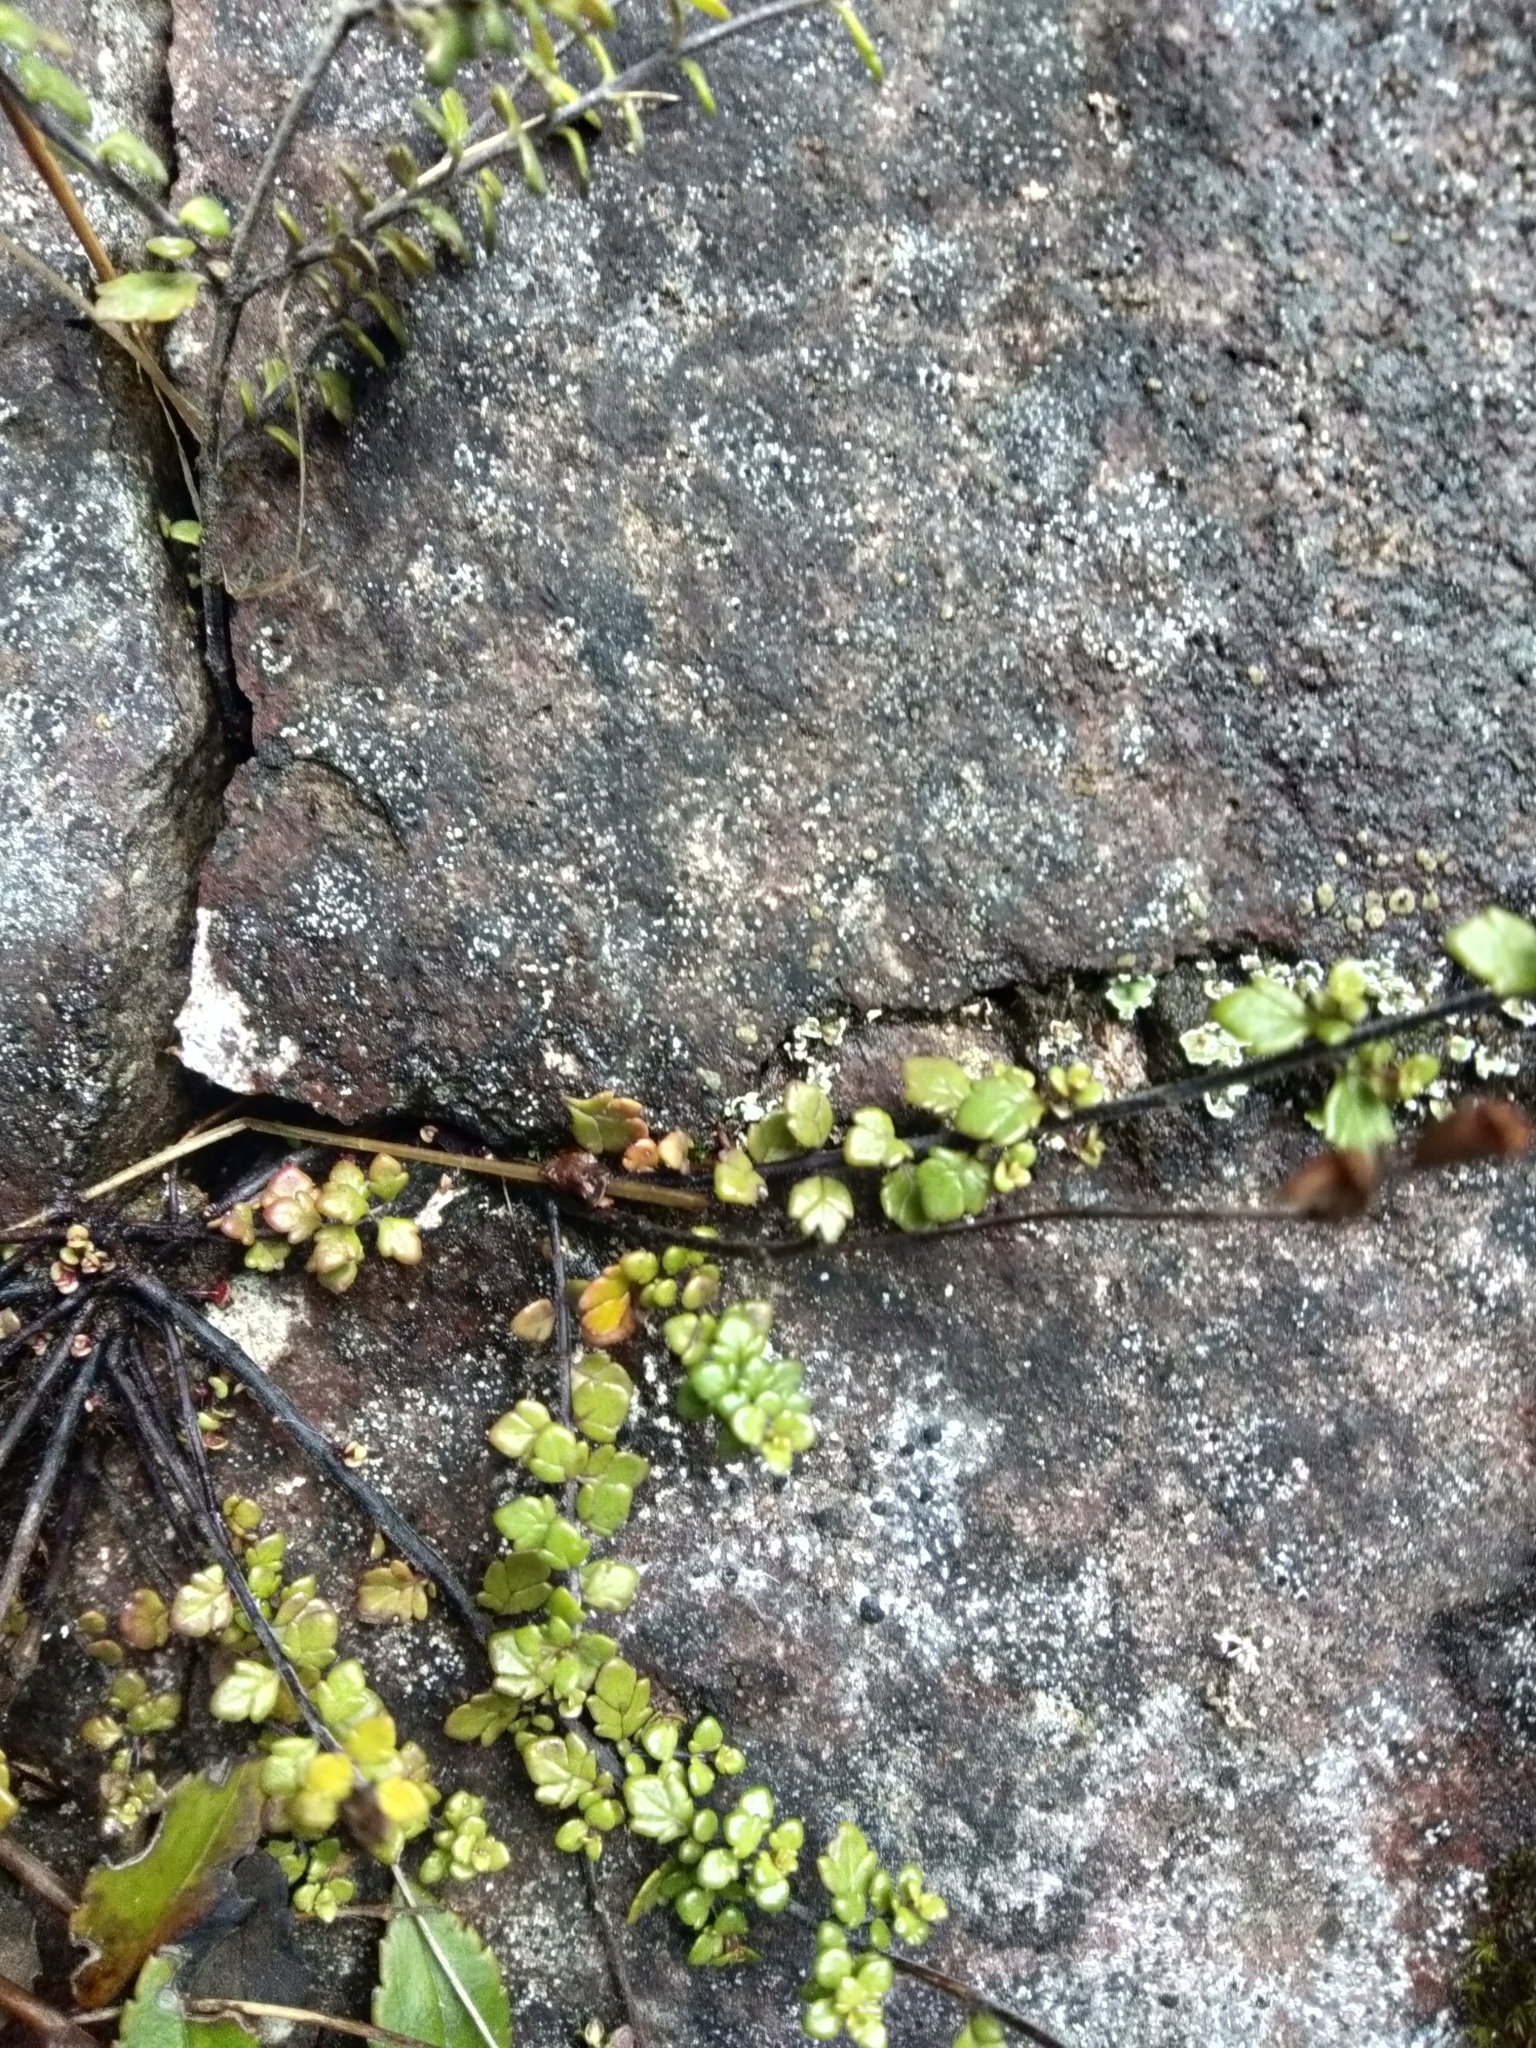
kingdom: Plantae
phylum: Tracheophyta
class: Magnoliopsida
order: Lamiales
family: Orobanchaceae
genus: Euphrasia
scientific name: Euphrasia cuneata
